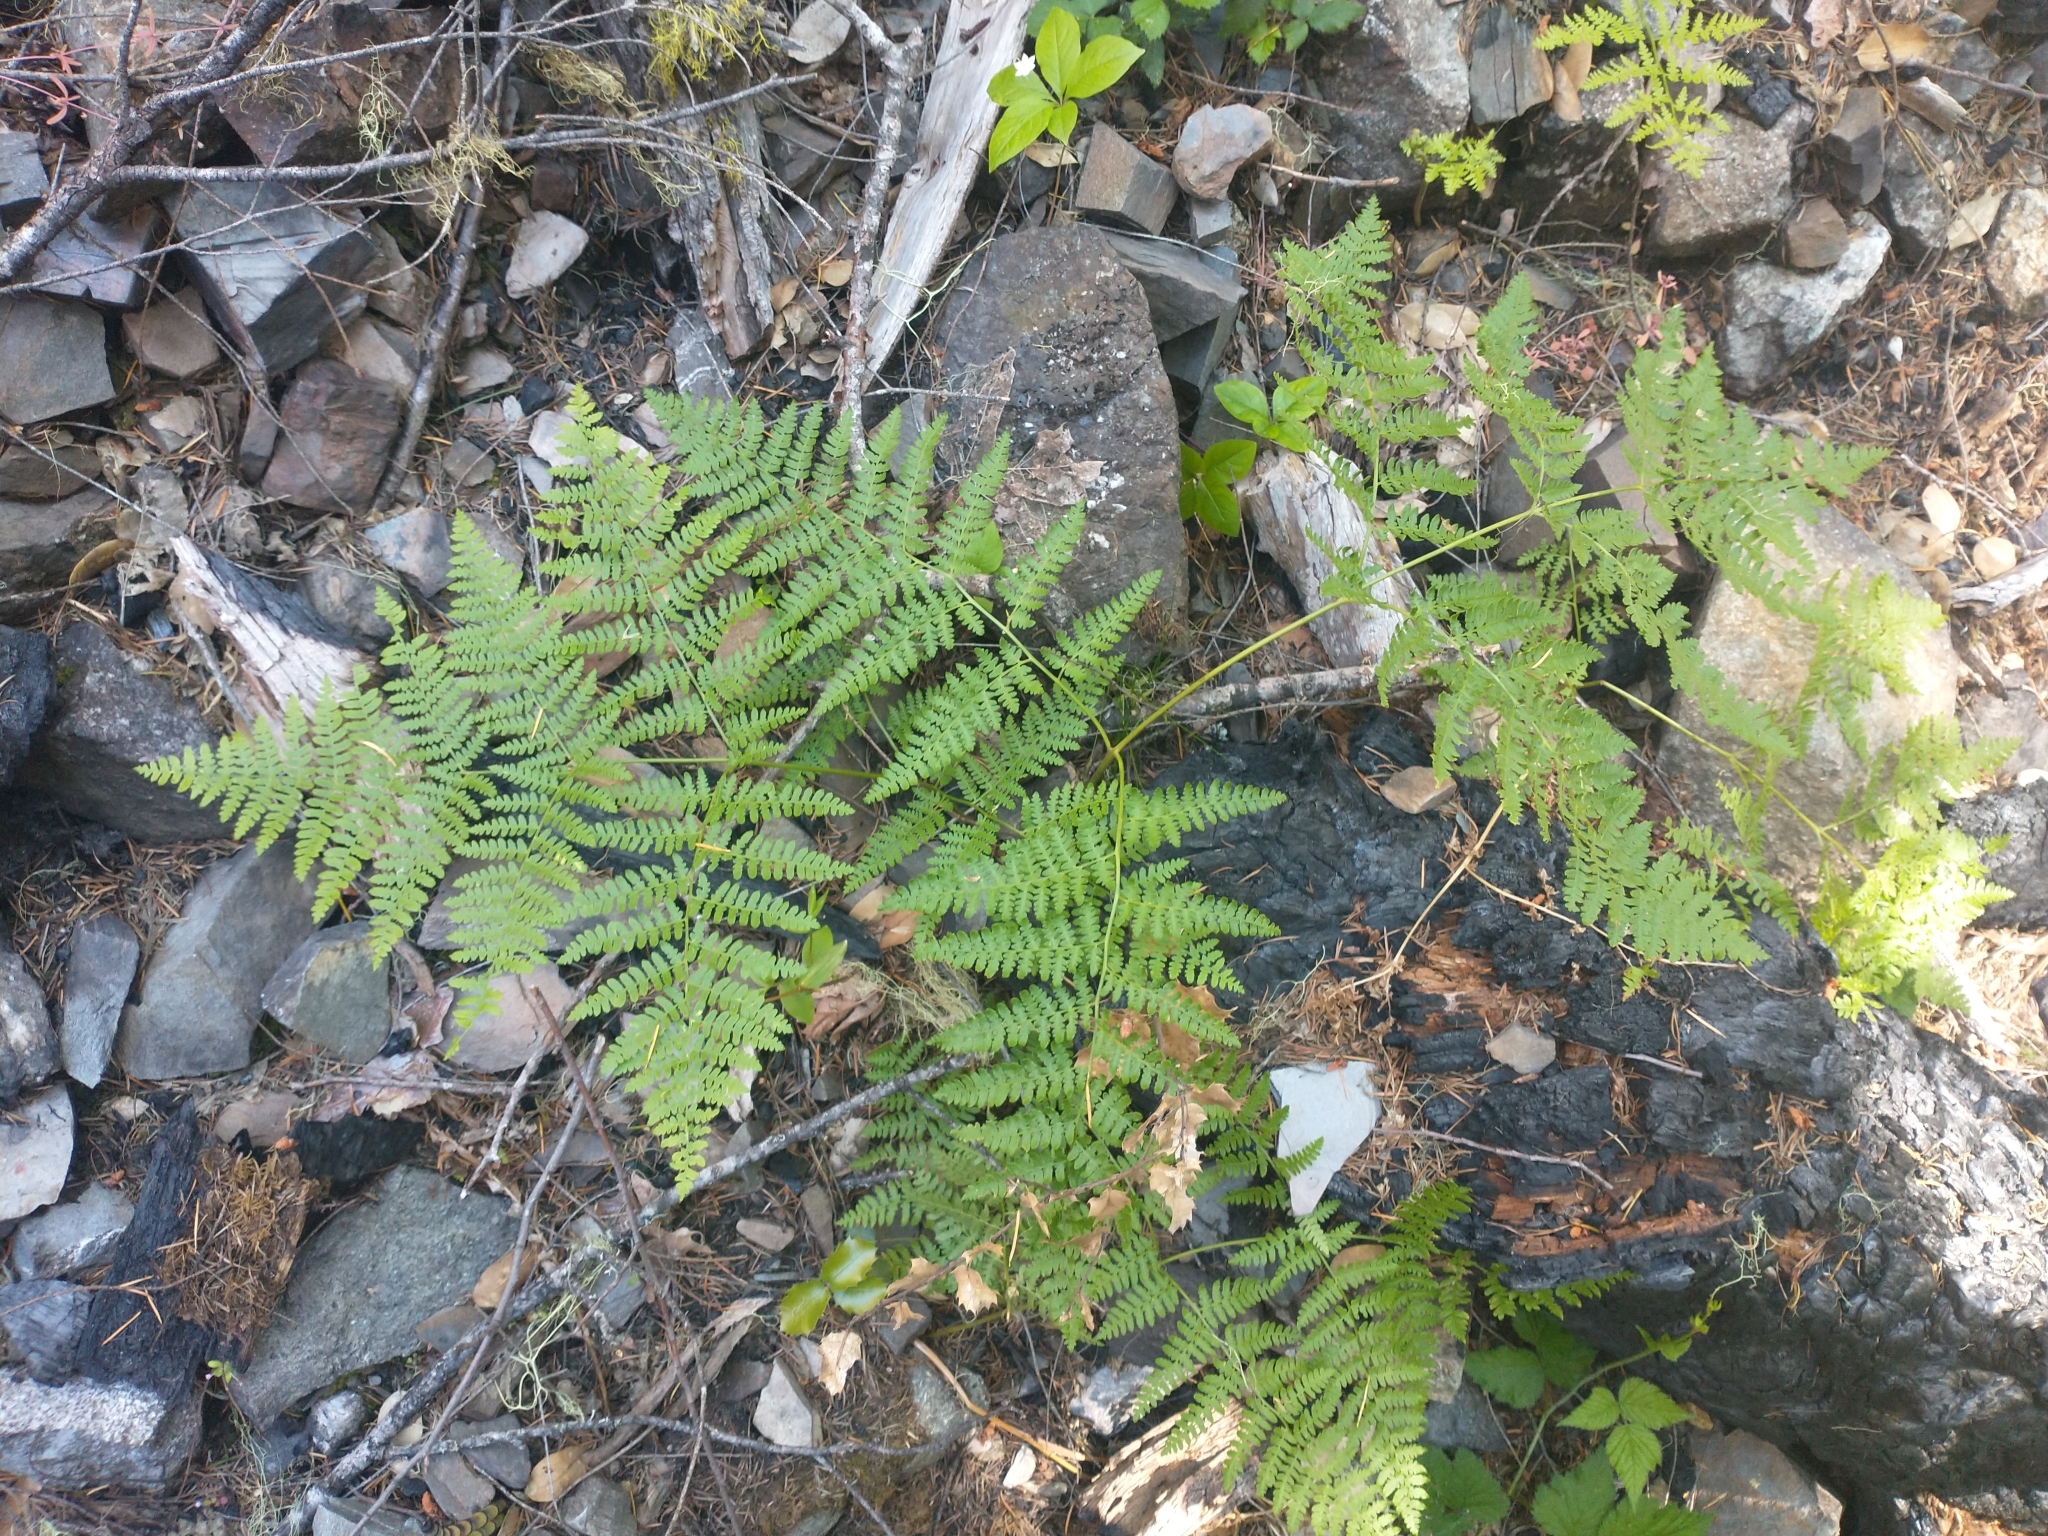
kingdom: Plantae
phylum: Tracheophyta
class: Polypodiopsida
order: Polypodiales
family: Dennstaedtiaceae
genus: Pteridium
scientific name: Pteridium aquilinum
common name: Bracken
